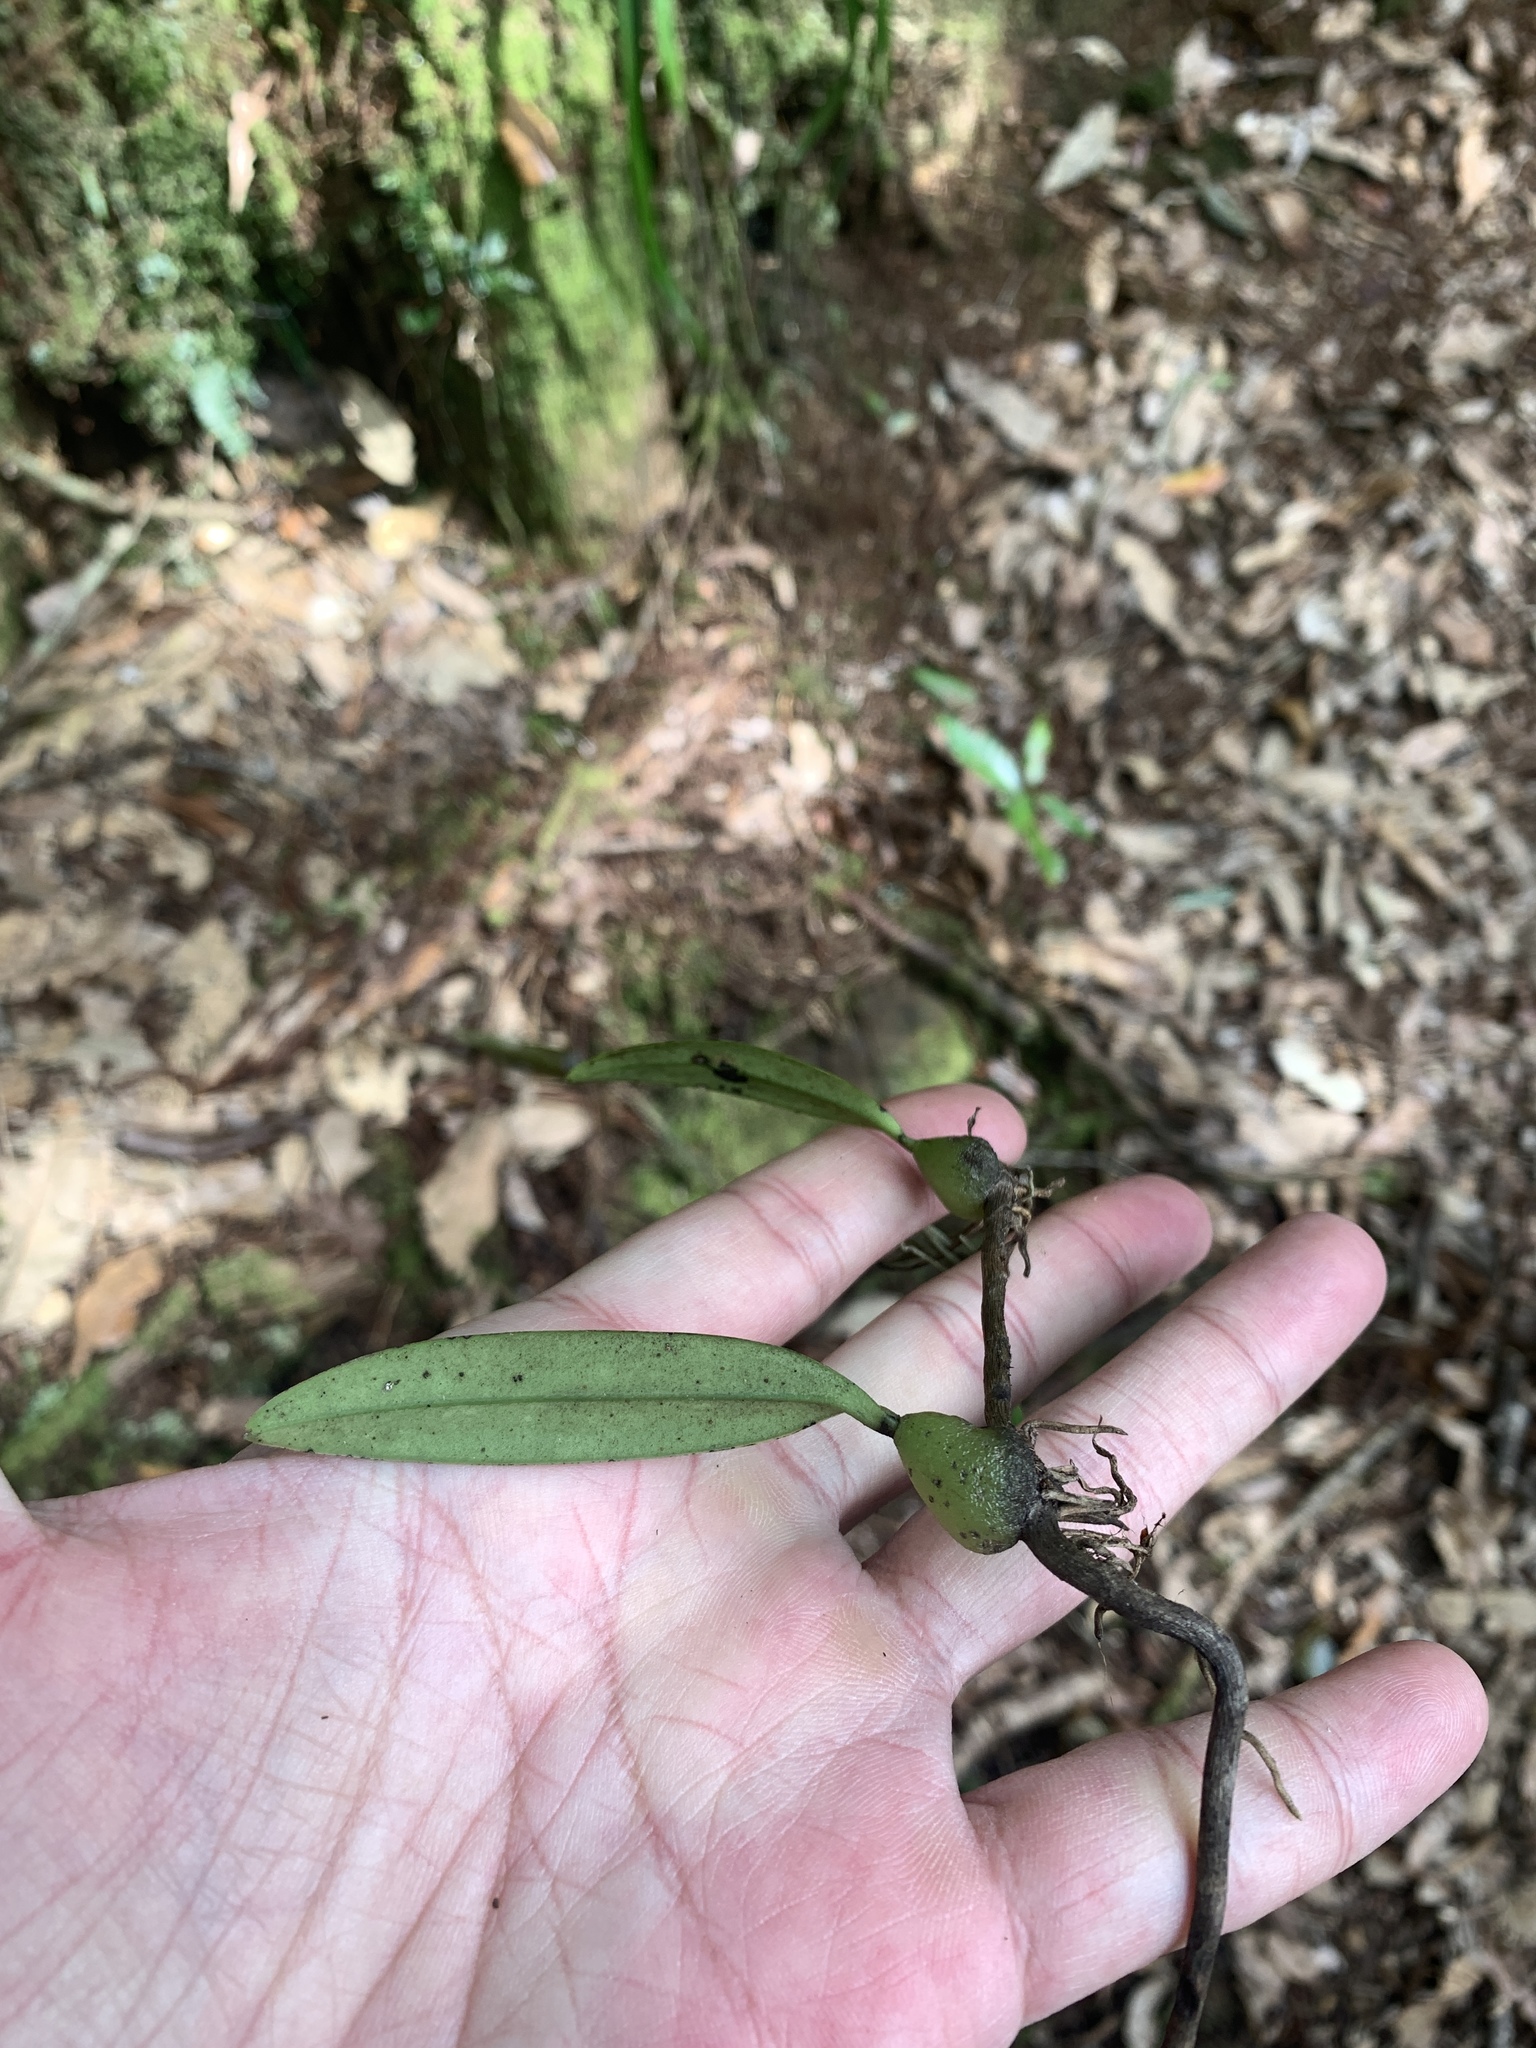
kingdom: Plantae
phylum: Tracheophyta
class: Liliopsida
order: Asparagales
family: Orchidaceae
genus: Bulbophyllum
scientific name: Bulbophyllum bifurcatoflorens
